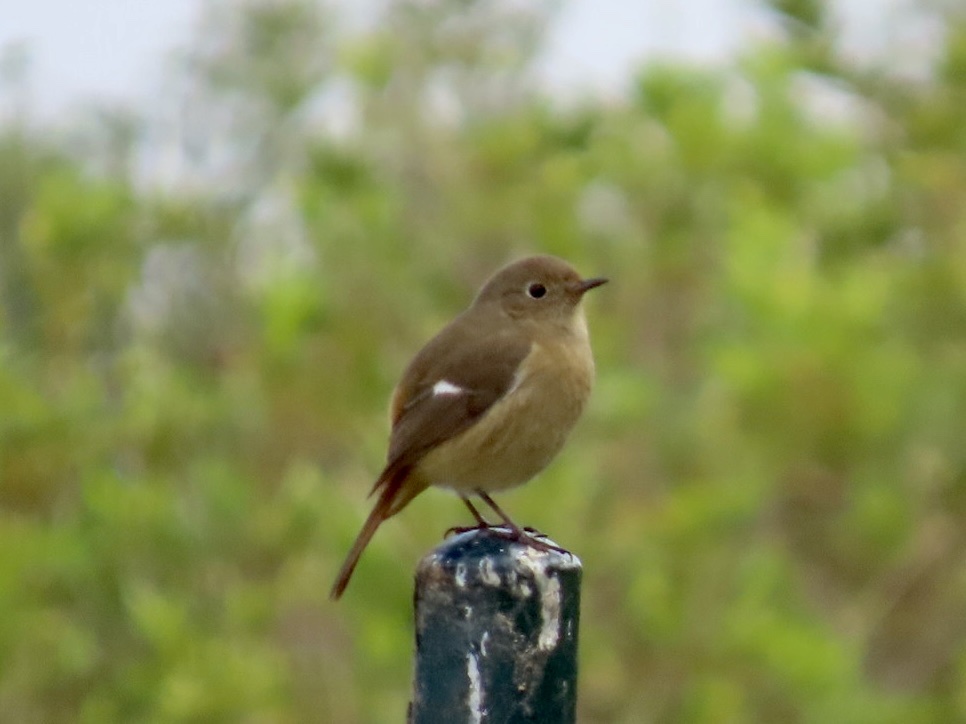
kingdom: Animalia
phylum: Chordata
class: Aves
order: Passeriformes
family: Muscicapidae
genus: Phoenicurus
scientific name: Phoenicurus auroreus
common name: Daurian redstart
